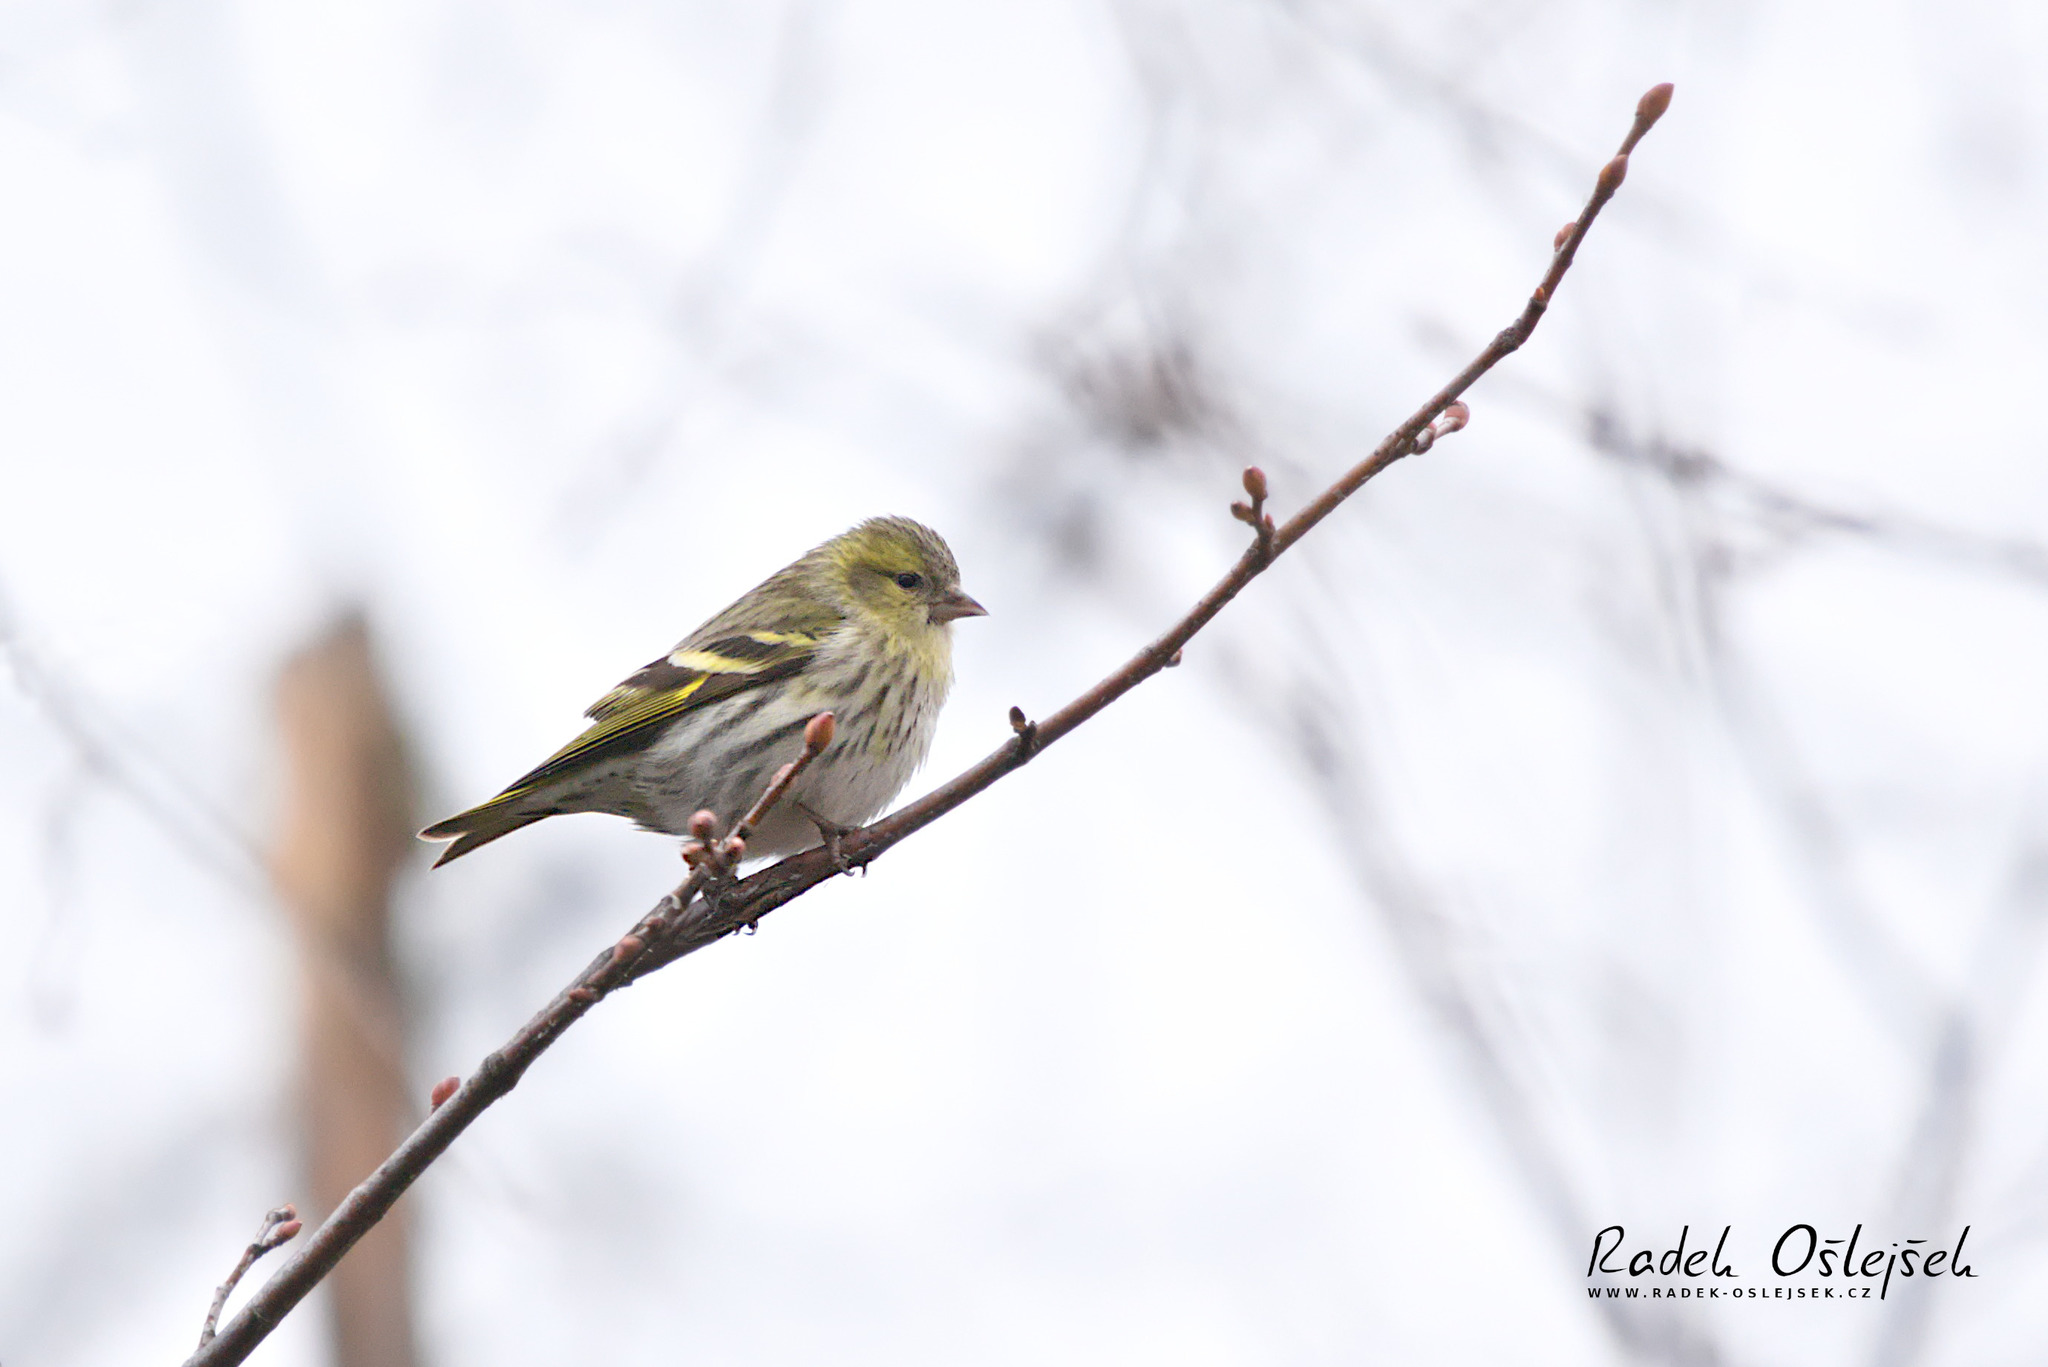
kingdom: Animalia
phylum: Chordata
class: Aves
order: Passeriformes
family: Fringillidae
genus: Spinus
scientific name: Spinus spinus
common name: Eurasian siskin
